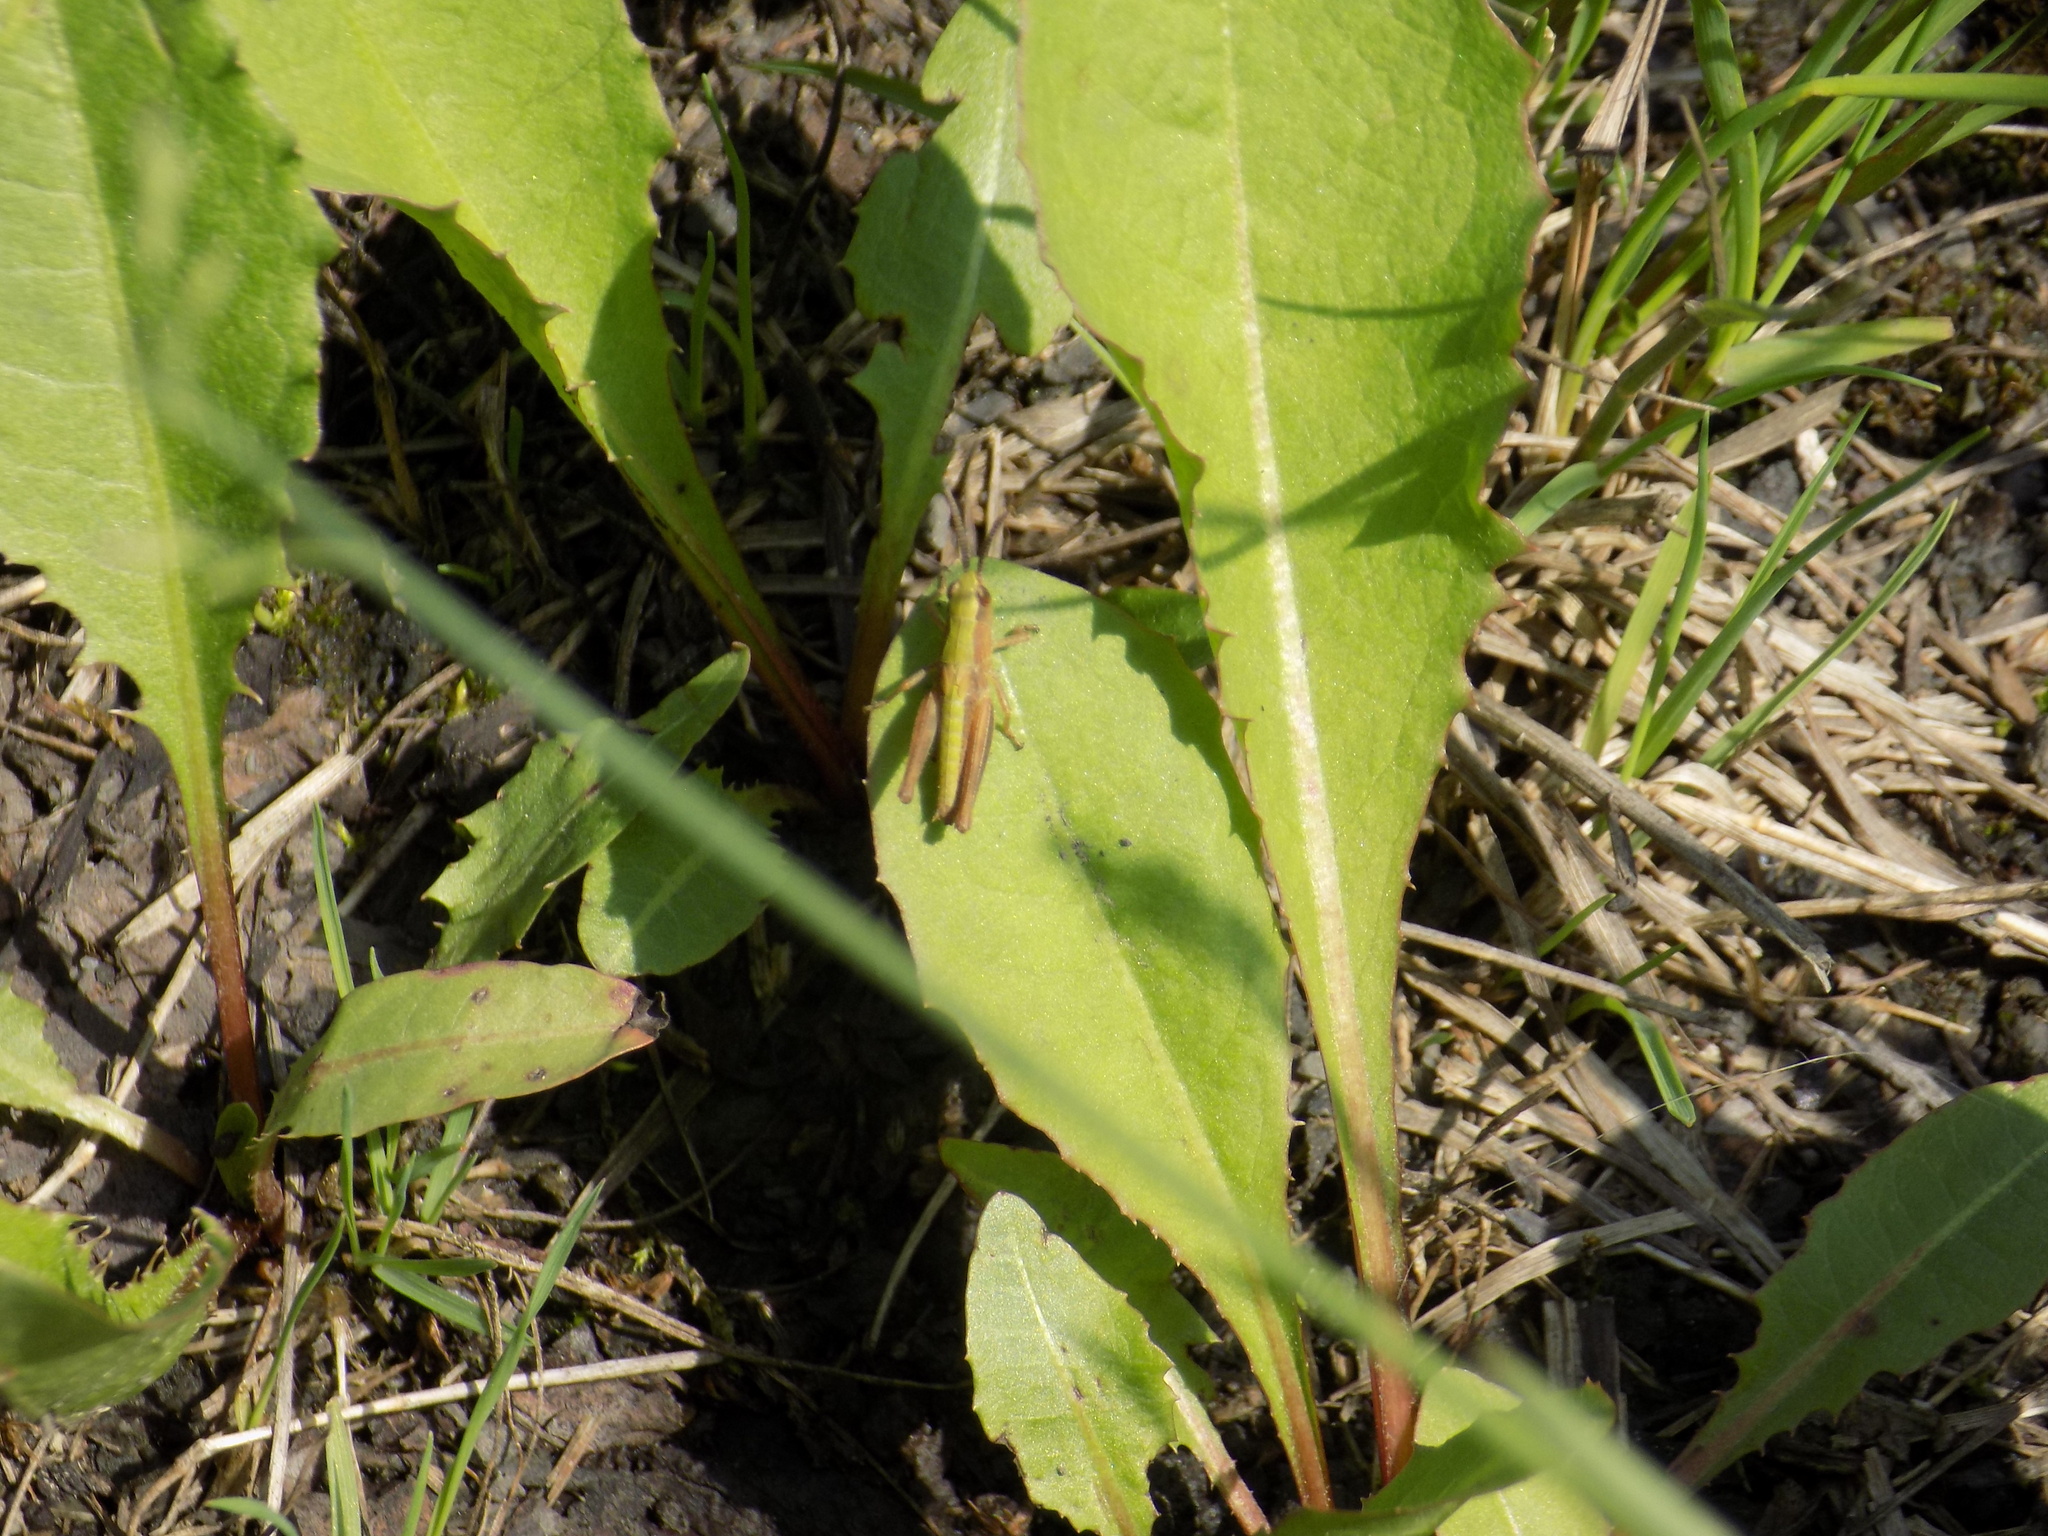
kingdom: Animalia
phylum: Arthropoda
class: Insecta
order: Orthoptera
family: Acrididae
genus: Chorthippus
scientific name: Chorthippus dorsatus
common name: Steppe grasshopper
